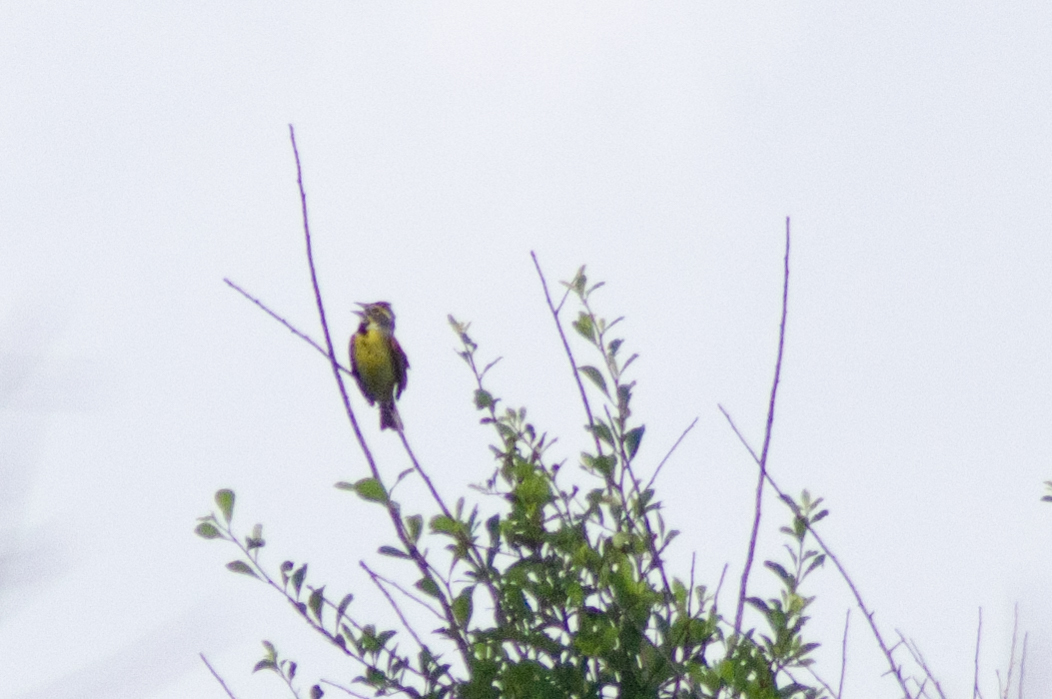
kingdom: Animalia
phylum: Chordata
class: Aves
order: Passeriformes
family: Cardinalidae
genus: Spiza
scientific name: Spiza americana
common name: Dickcissel
